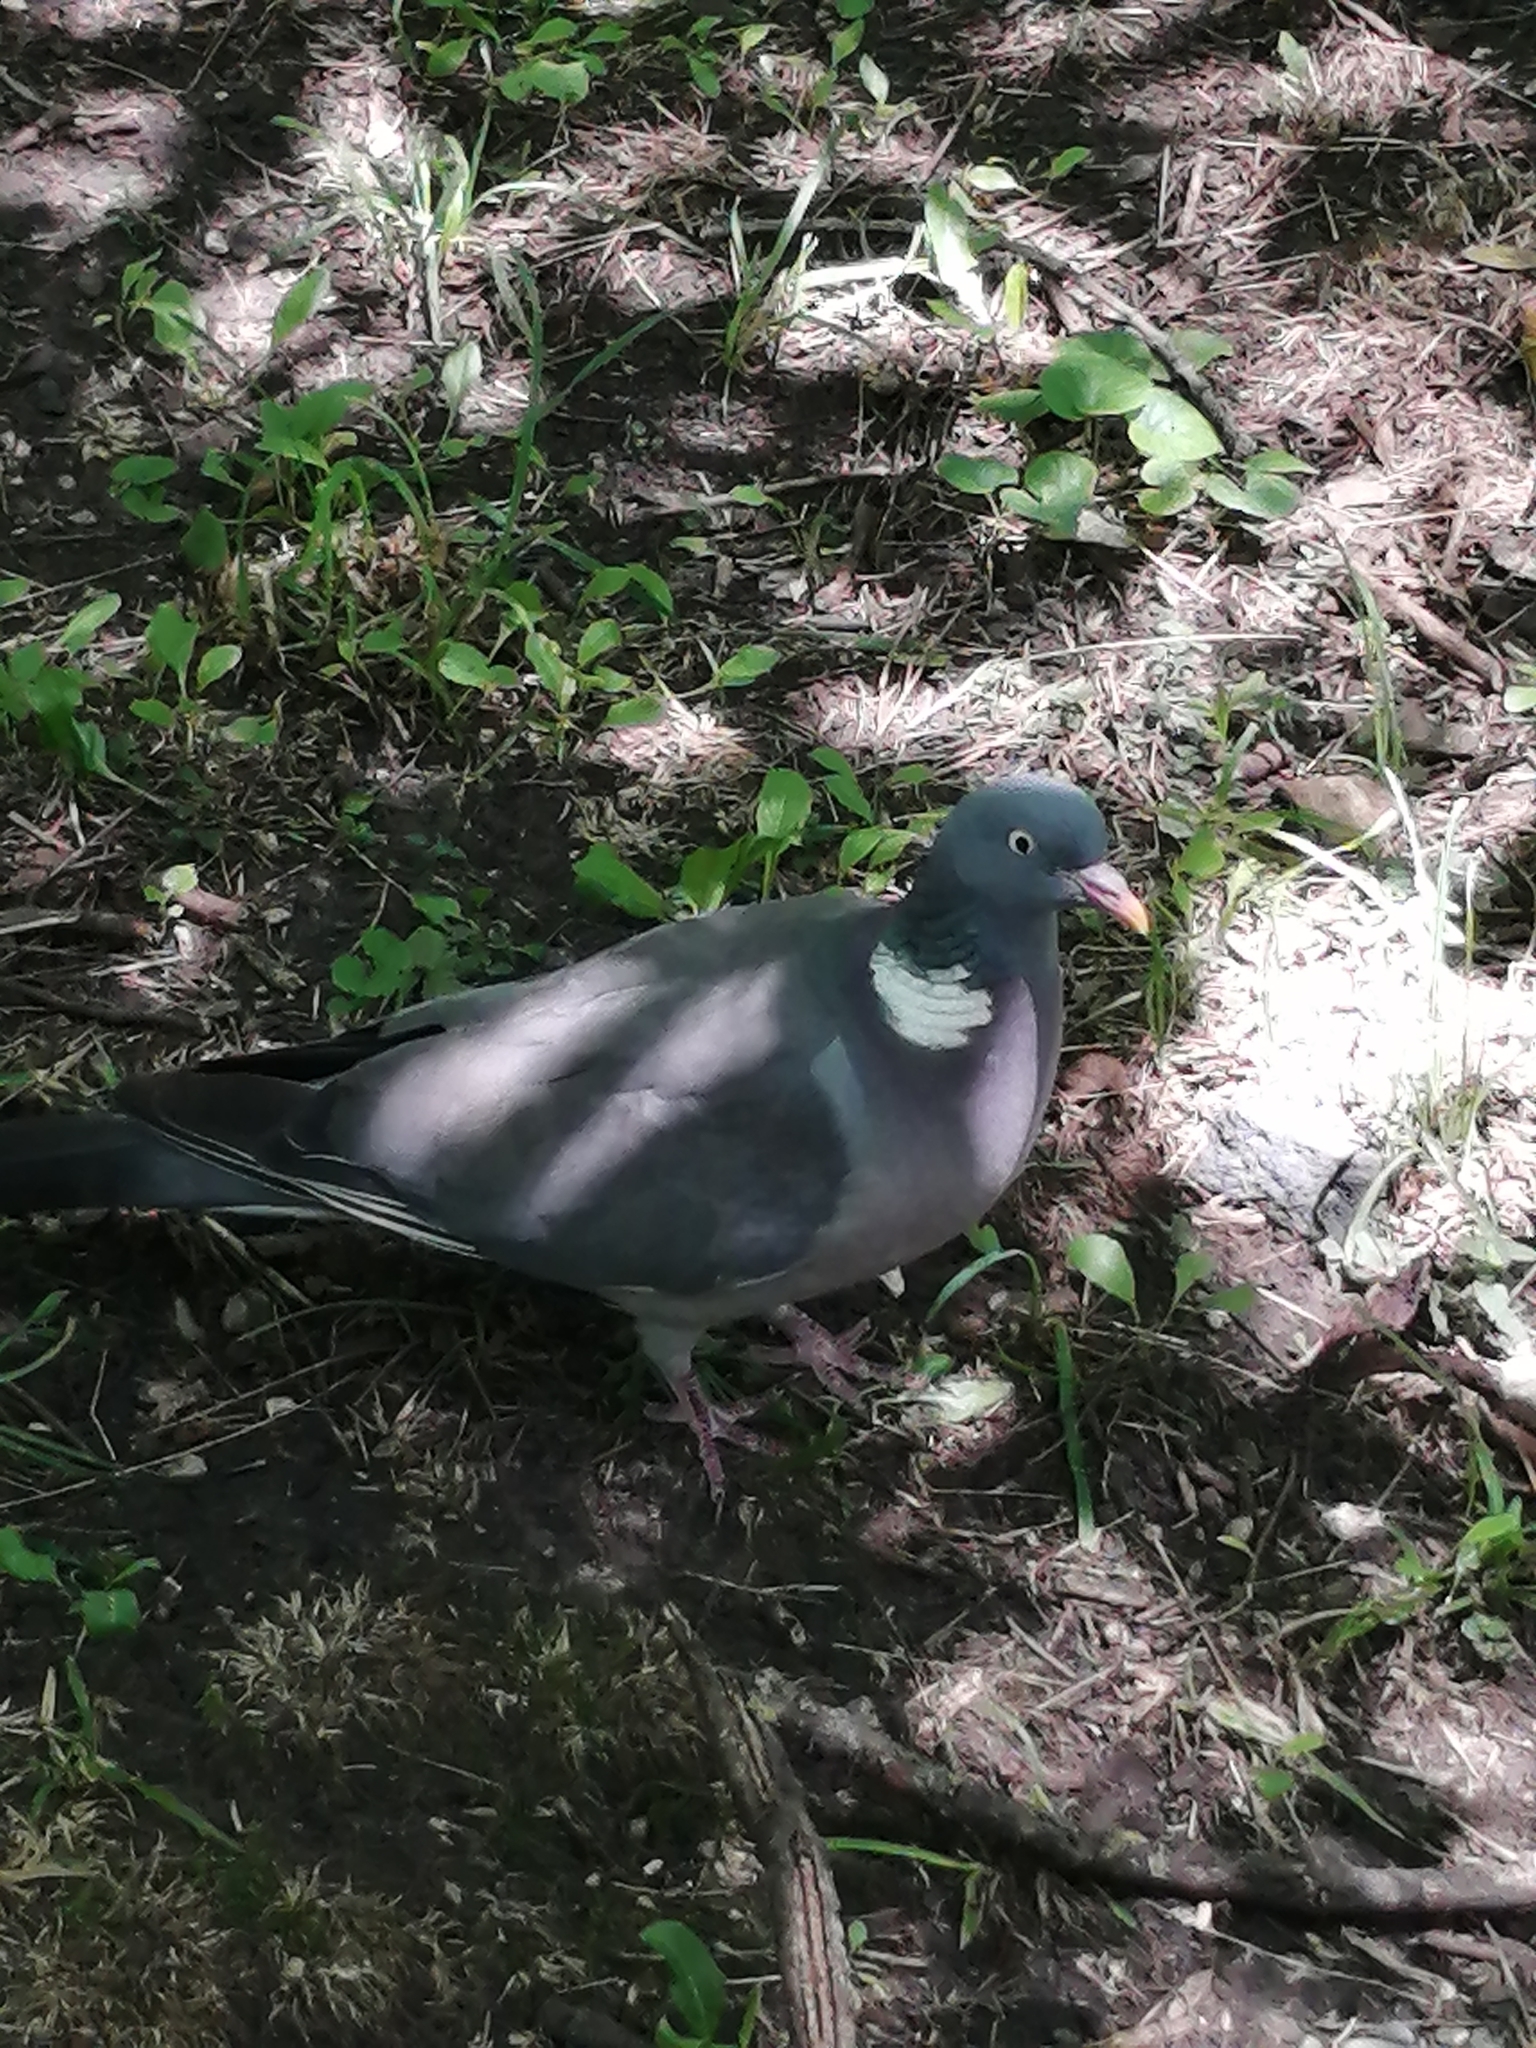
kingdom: Animalia
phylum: Chordata
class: Aves
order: Columbiformes
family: Columbidae
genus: Columba
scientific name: Columba palumbus
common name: Common wood pigeon
